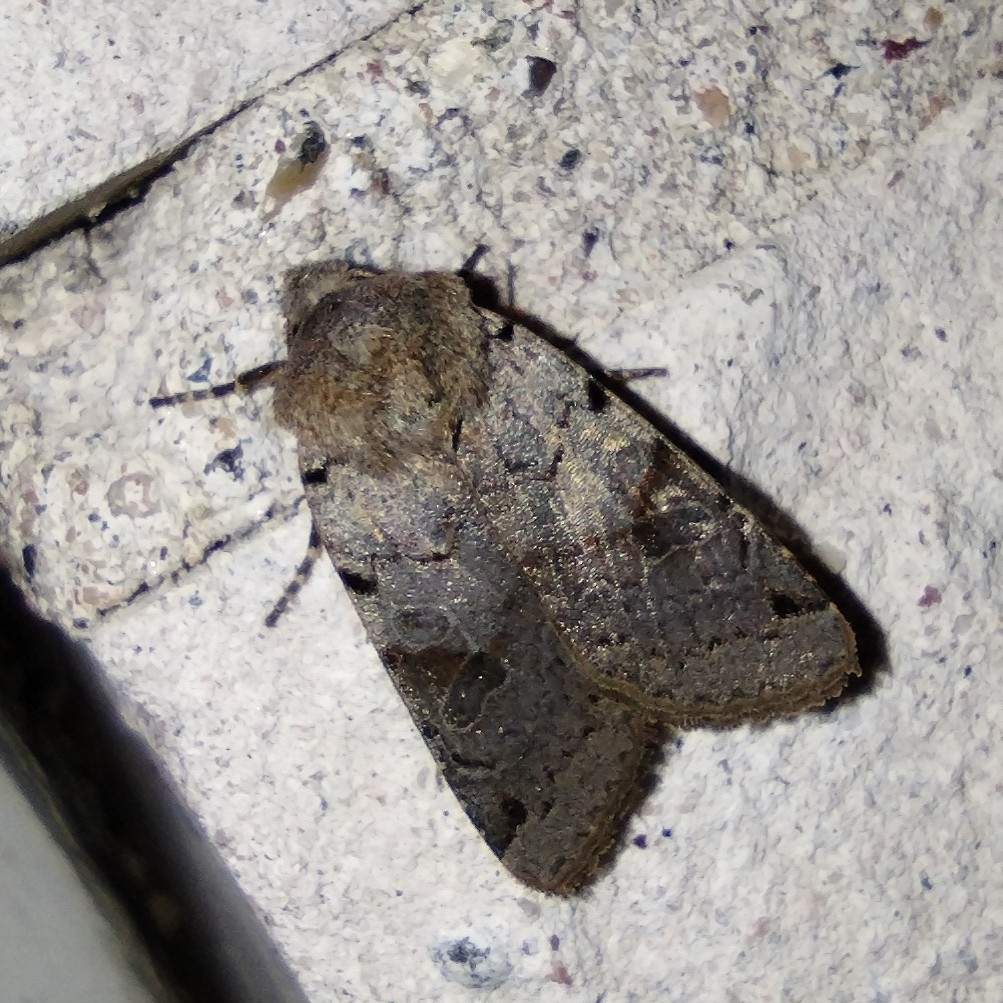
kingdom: Animalia
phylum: Arthropoda
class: Insecta
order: Lepidoptera
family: Noctuidae
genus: Agrochola
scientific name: Agrochola litura
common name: Brown-spot pinion
